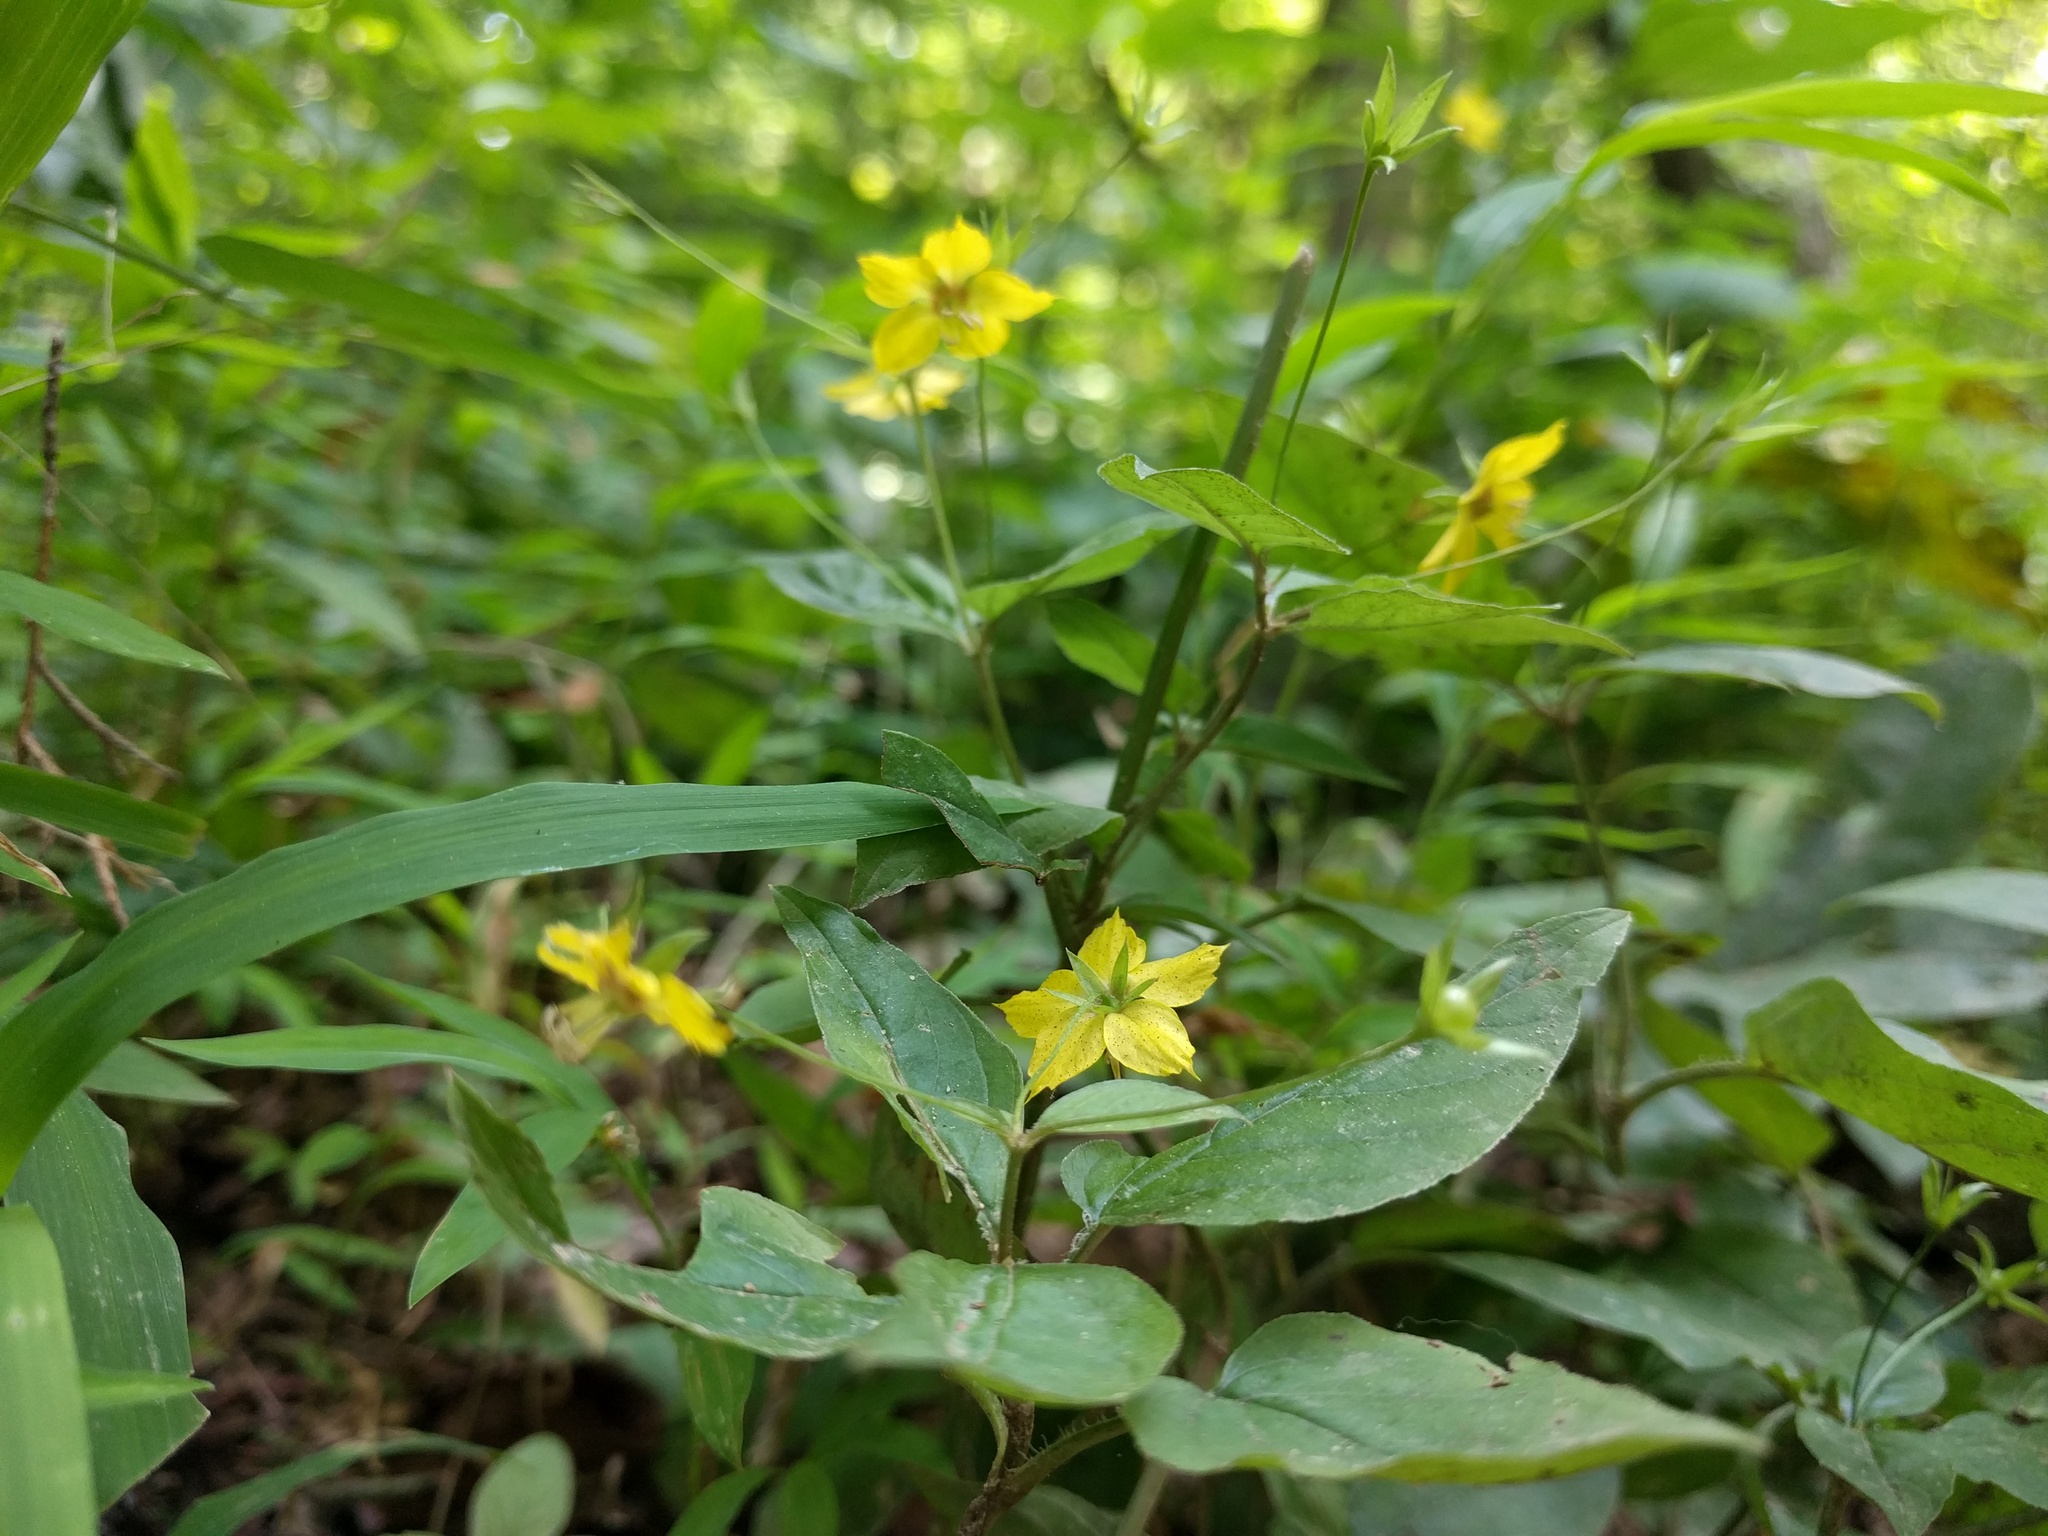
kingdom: Plantae
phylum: Tracheophyta
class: Magnoliopsida
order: Ericales
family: Primulaceae
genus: Lysimachia
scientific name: Lysimachia ciliata
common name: Fringed loosestrife
